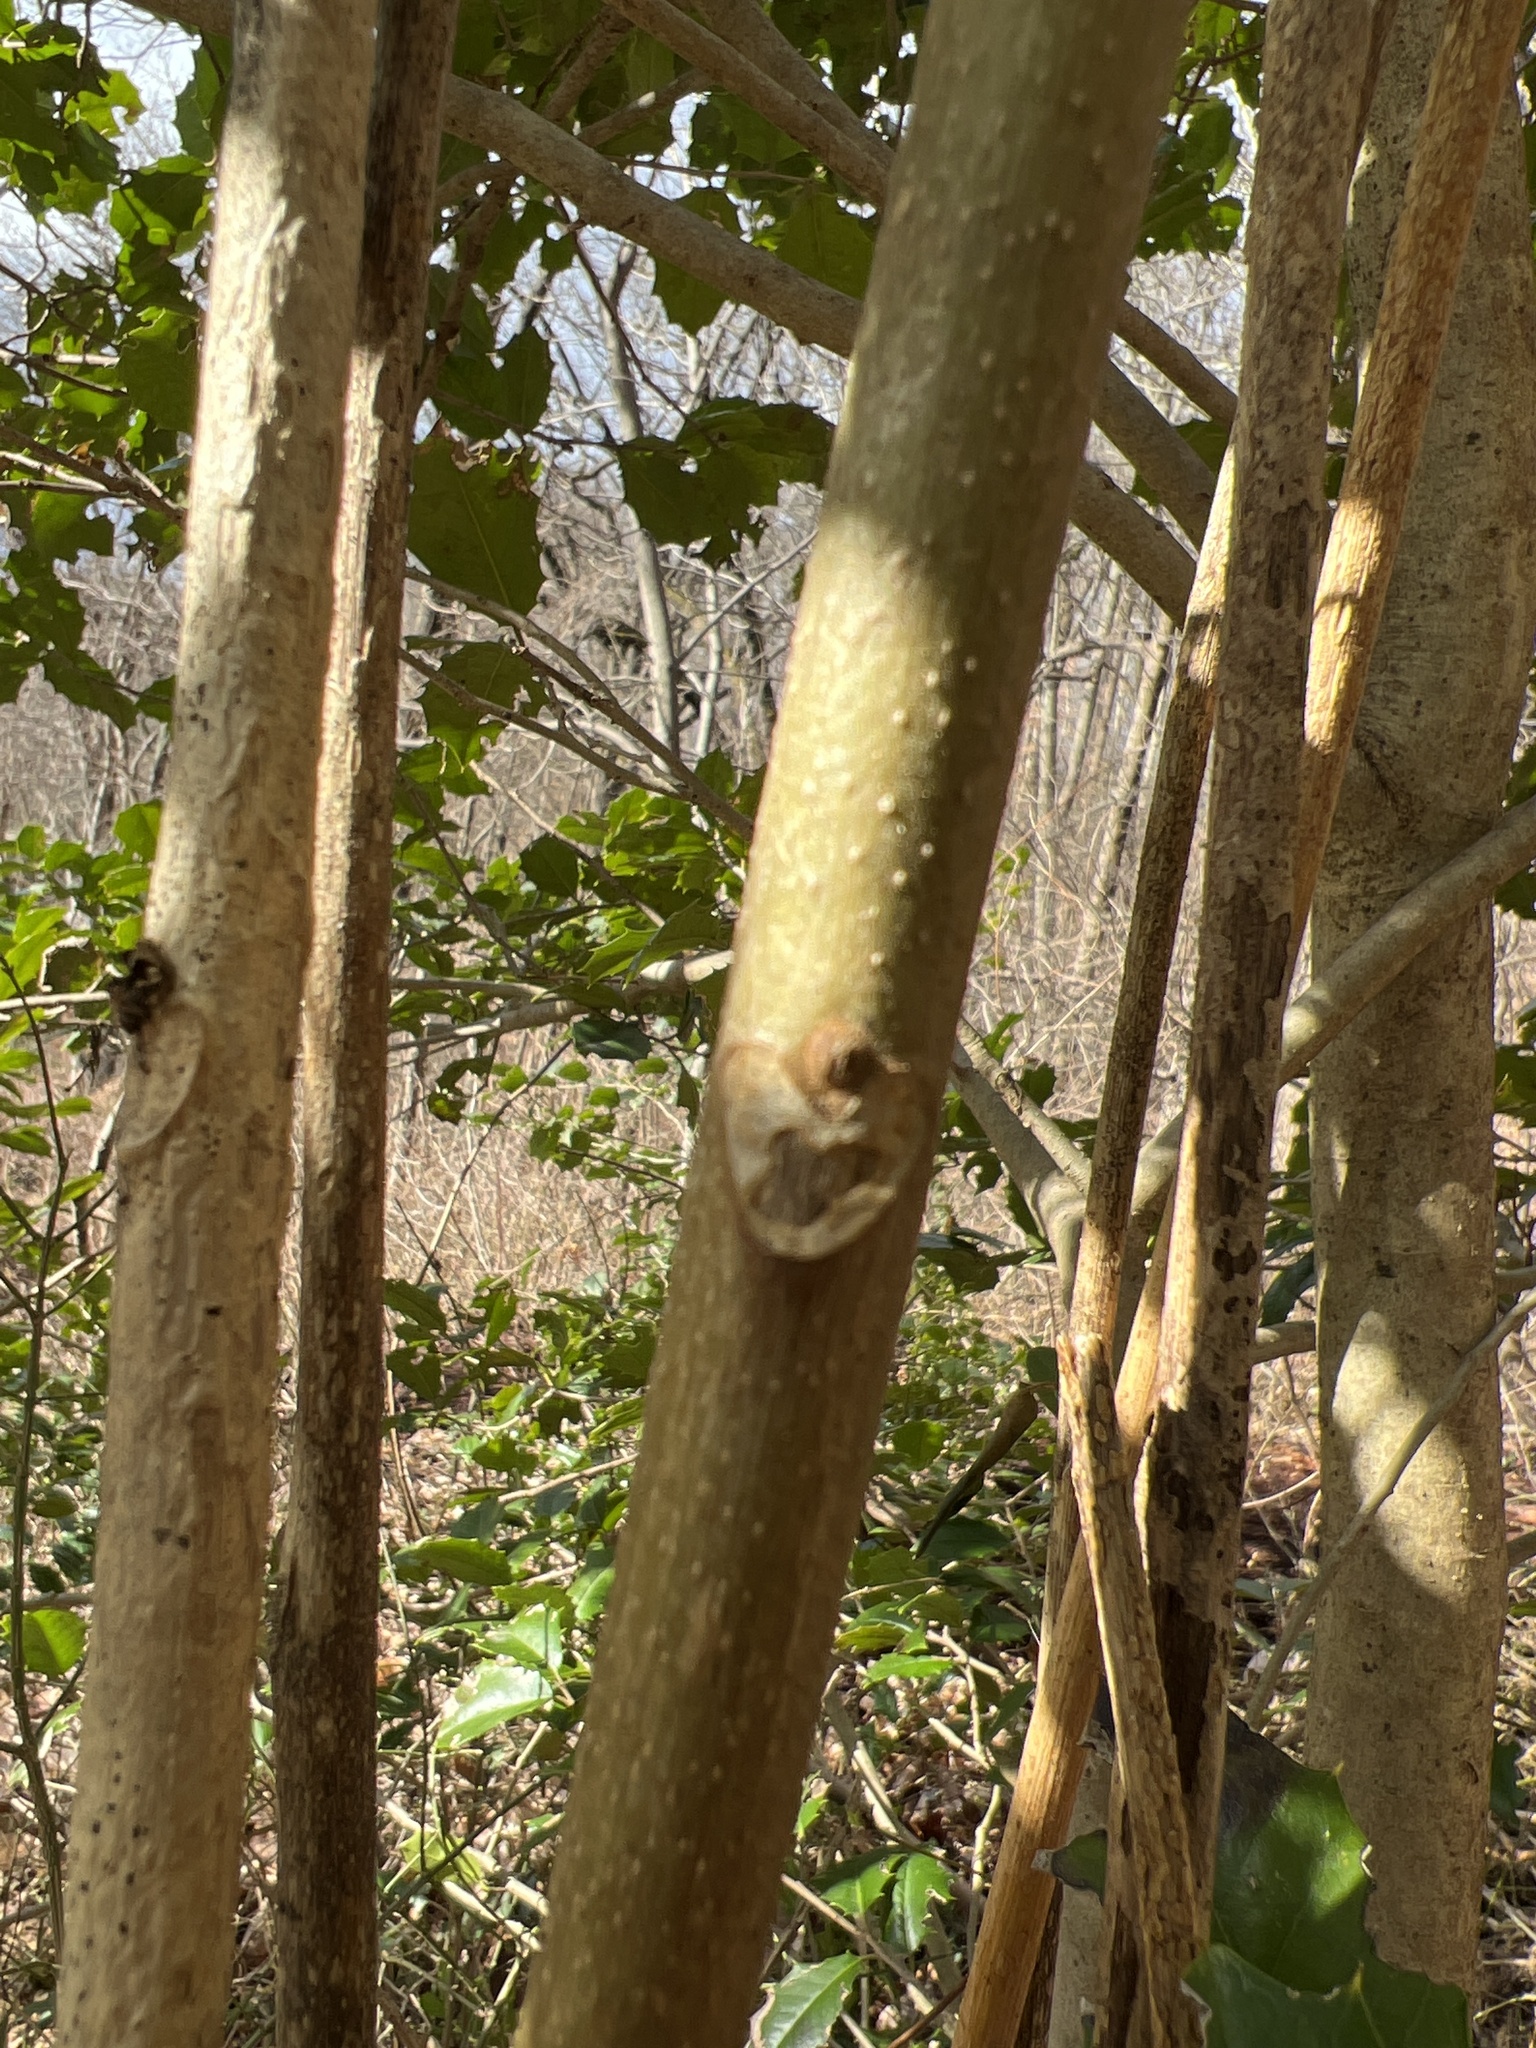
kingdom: Plantae
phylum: Tracheophyta
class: Magnoliopsida
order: Sapindales
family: Simaroubaceae
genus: Ailanthus
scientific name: Ailanthus altissima
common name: Tree-of-heaven
